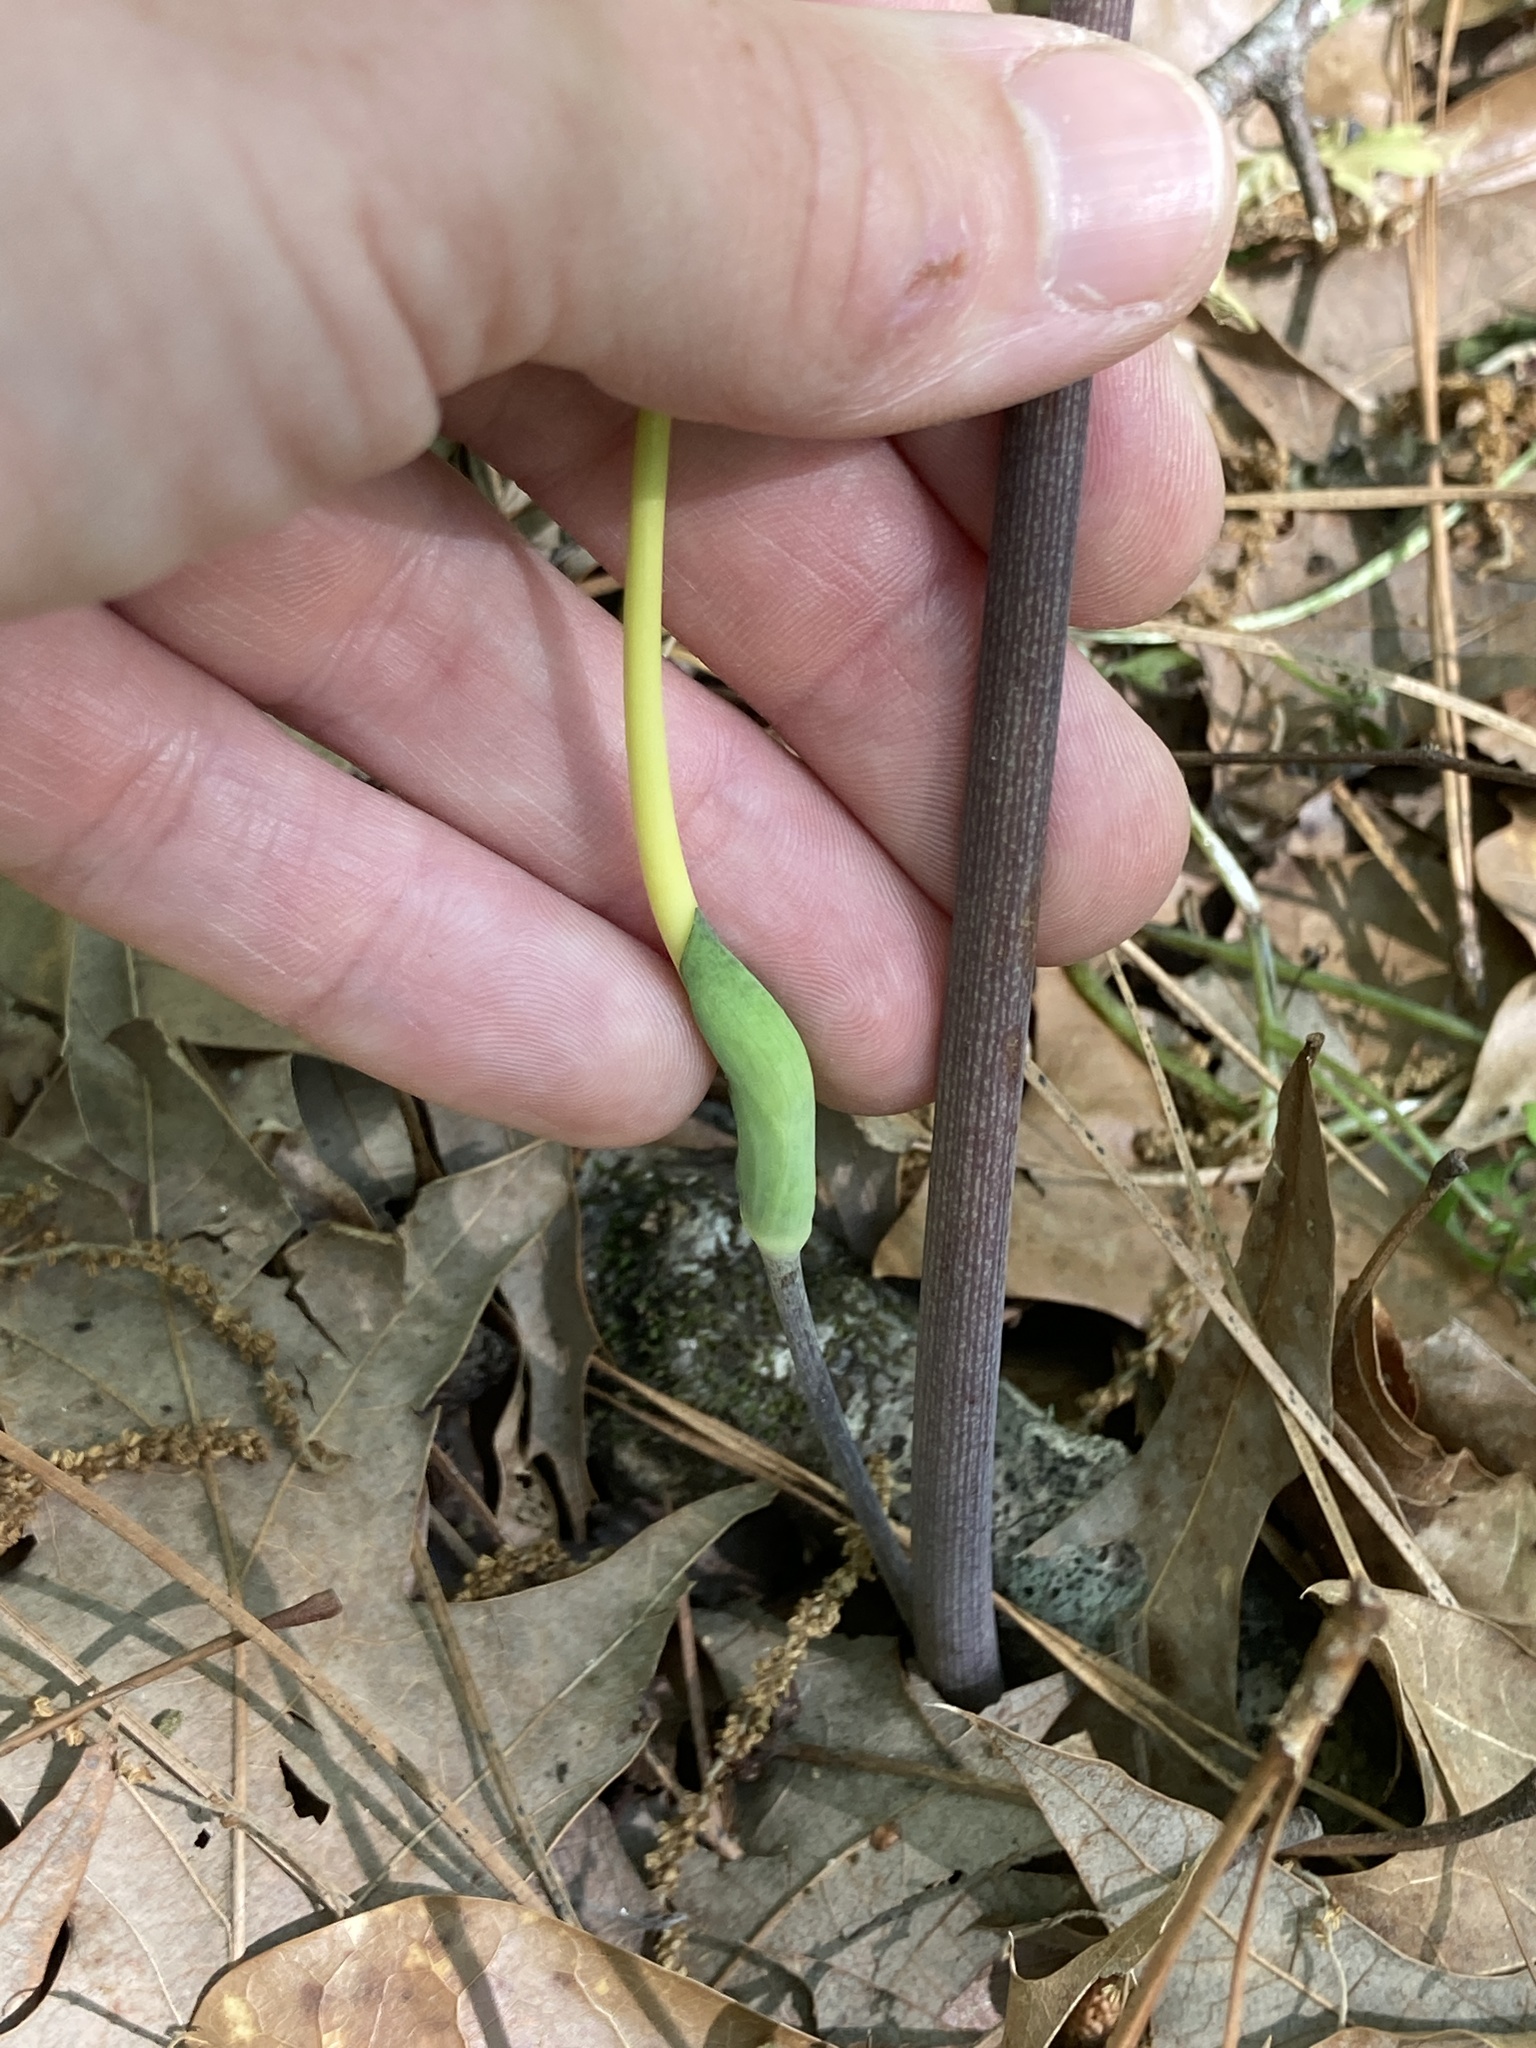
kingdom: Plantae
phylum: Tracheophyta
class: Liliopsida
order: Alismatales
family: Araceae
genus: Arisaema
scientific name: Arisaema dracontium
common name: Dragon-arum
